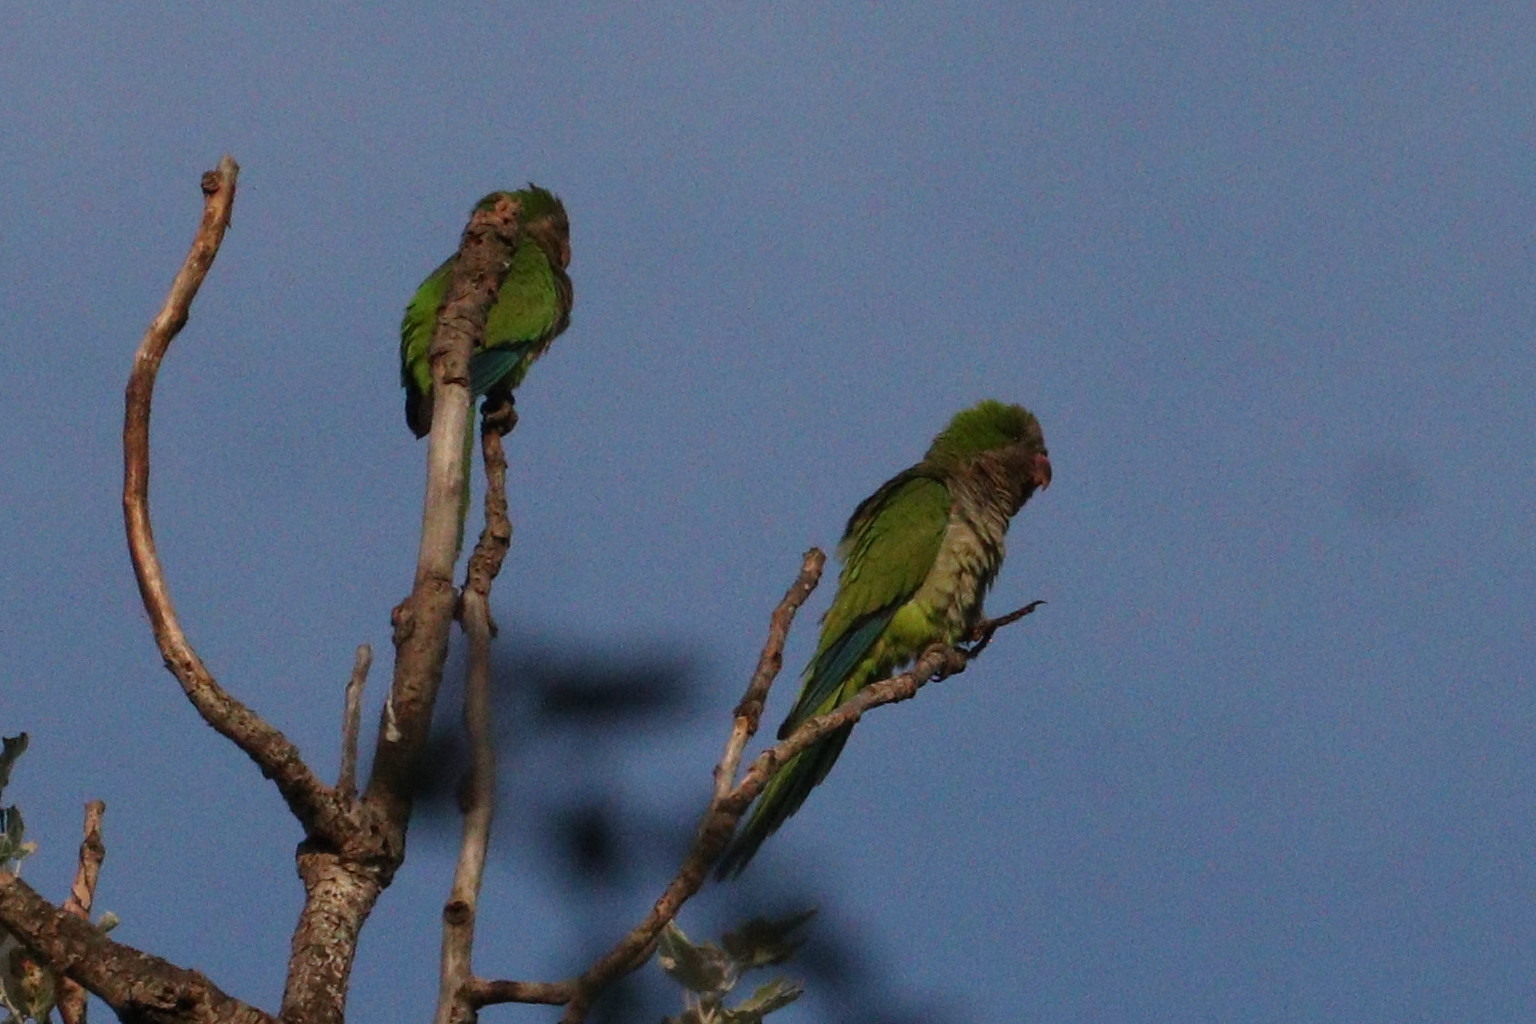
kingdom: Animalia
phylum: Chordata
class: Aves
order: Psittaciformes
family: Psittacidae
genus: Myiopsitta
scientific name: Myiopsitta monachus
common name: Monk parakeet
